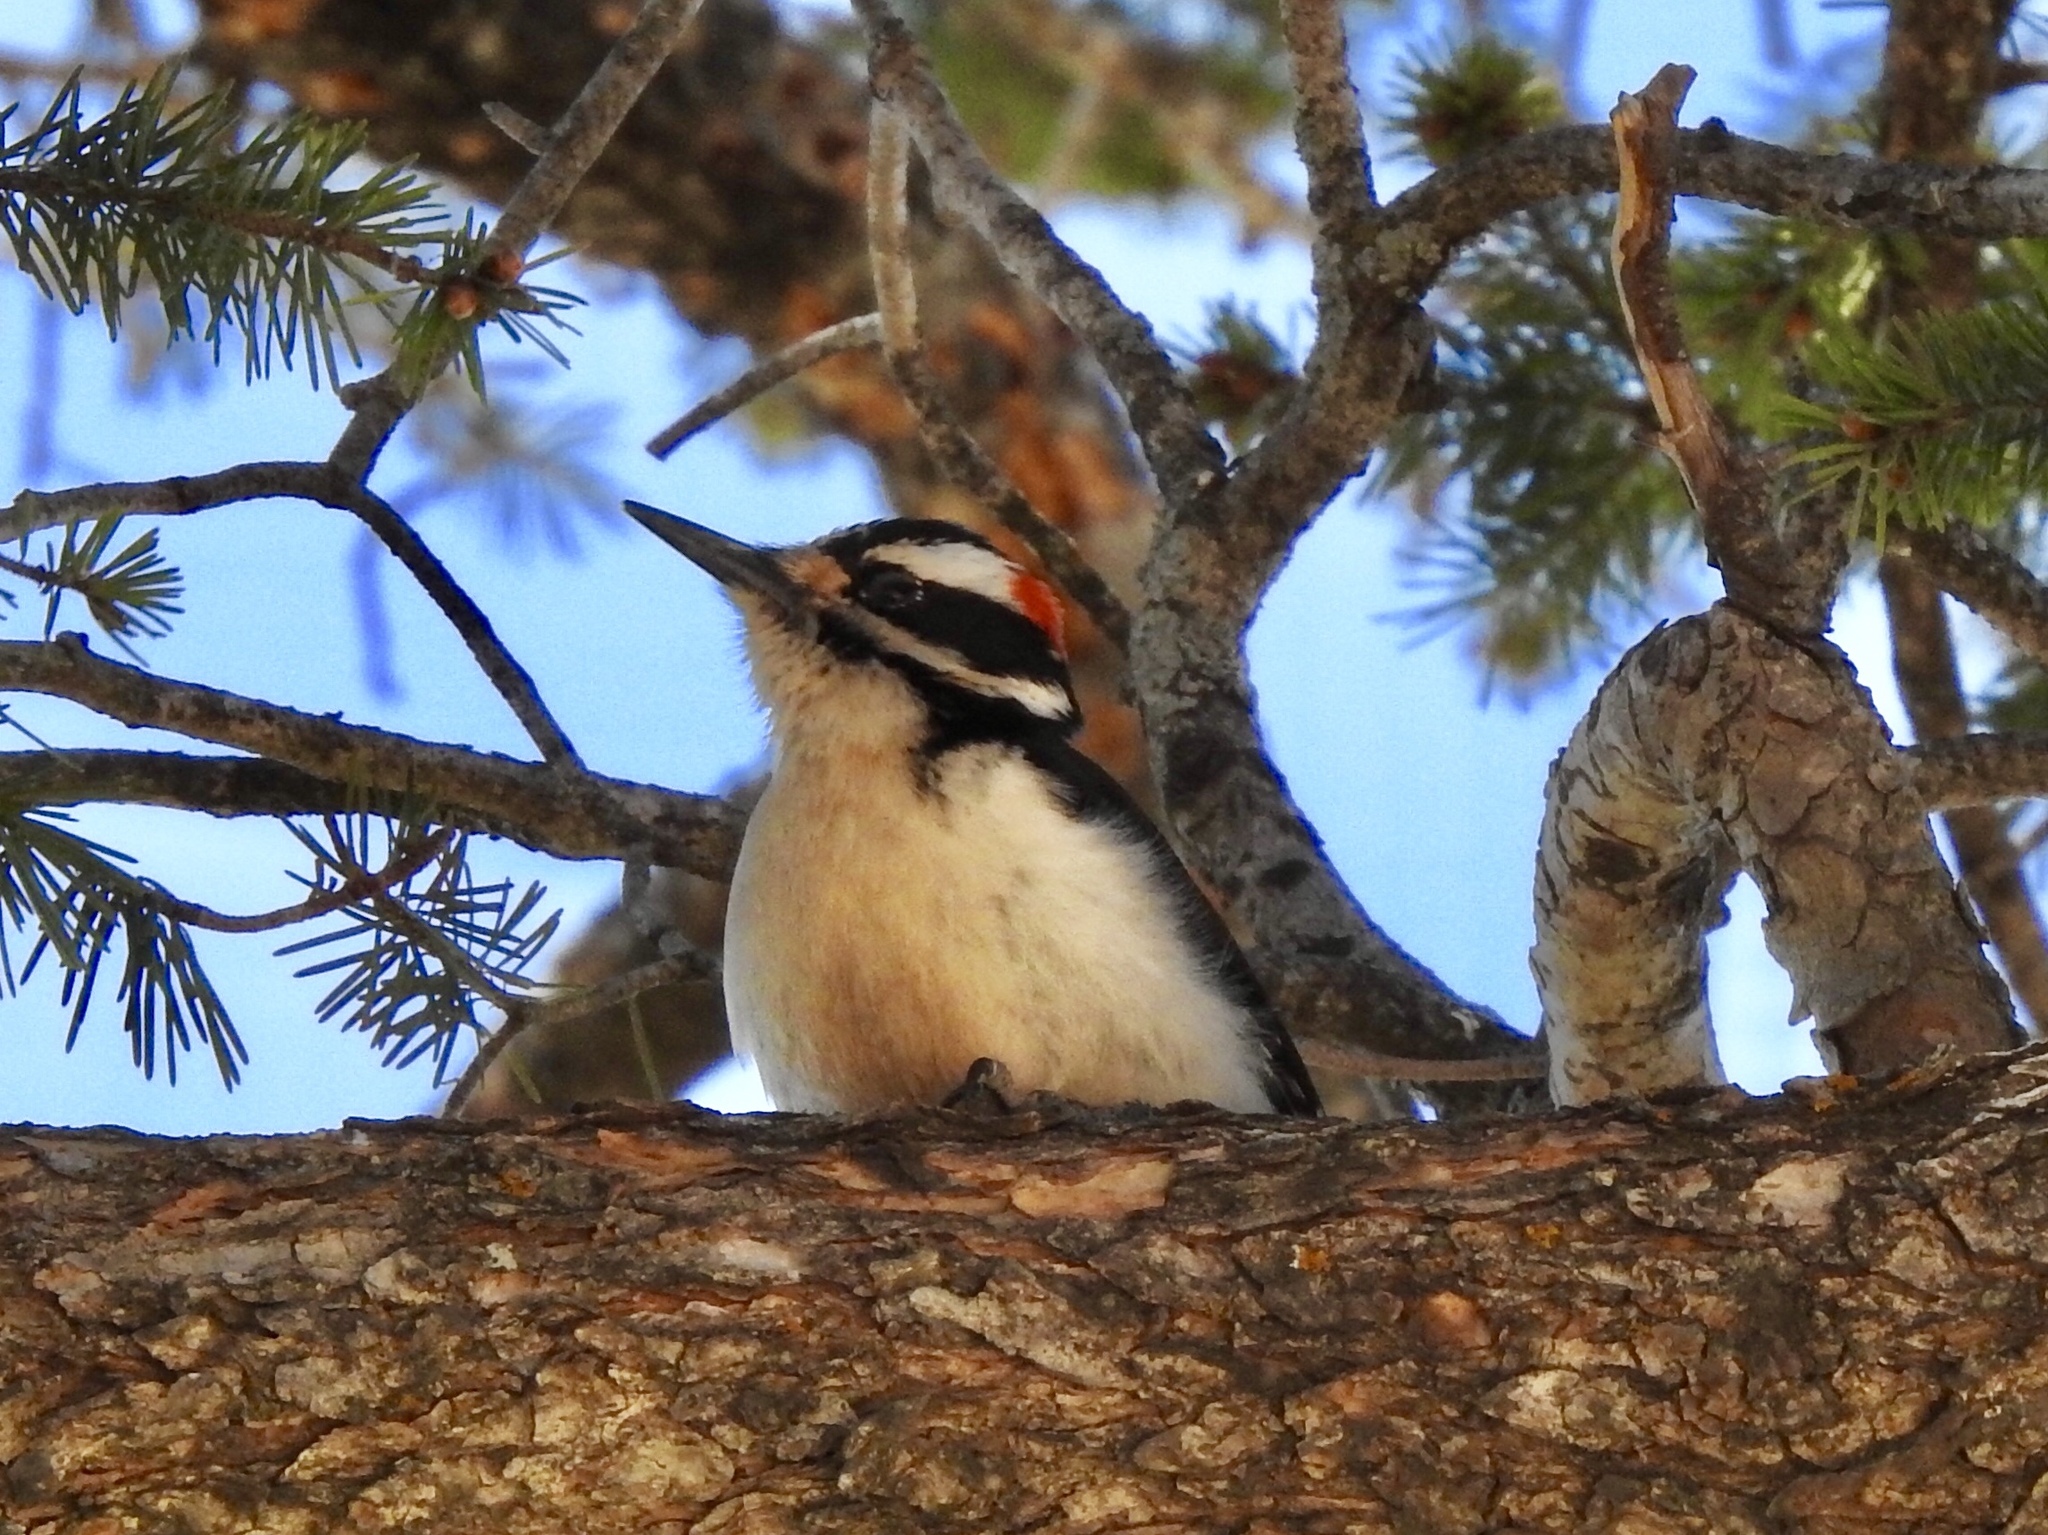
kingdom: Animalia
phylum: Chordata
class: Aves
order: Piciformes
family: Picidae
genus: Leuconotopicus
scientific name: Leuconotopicus villosus
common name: Hairy woodpecker
